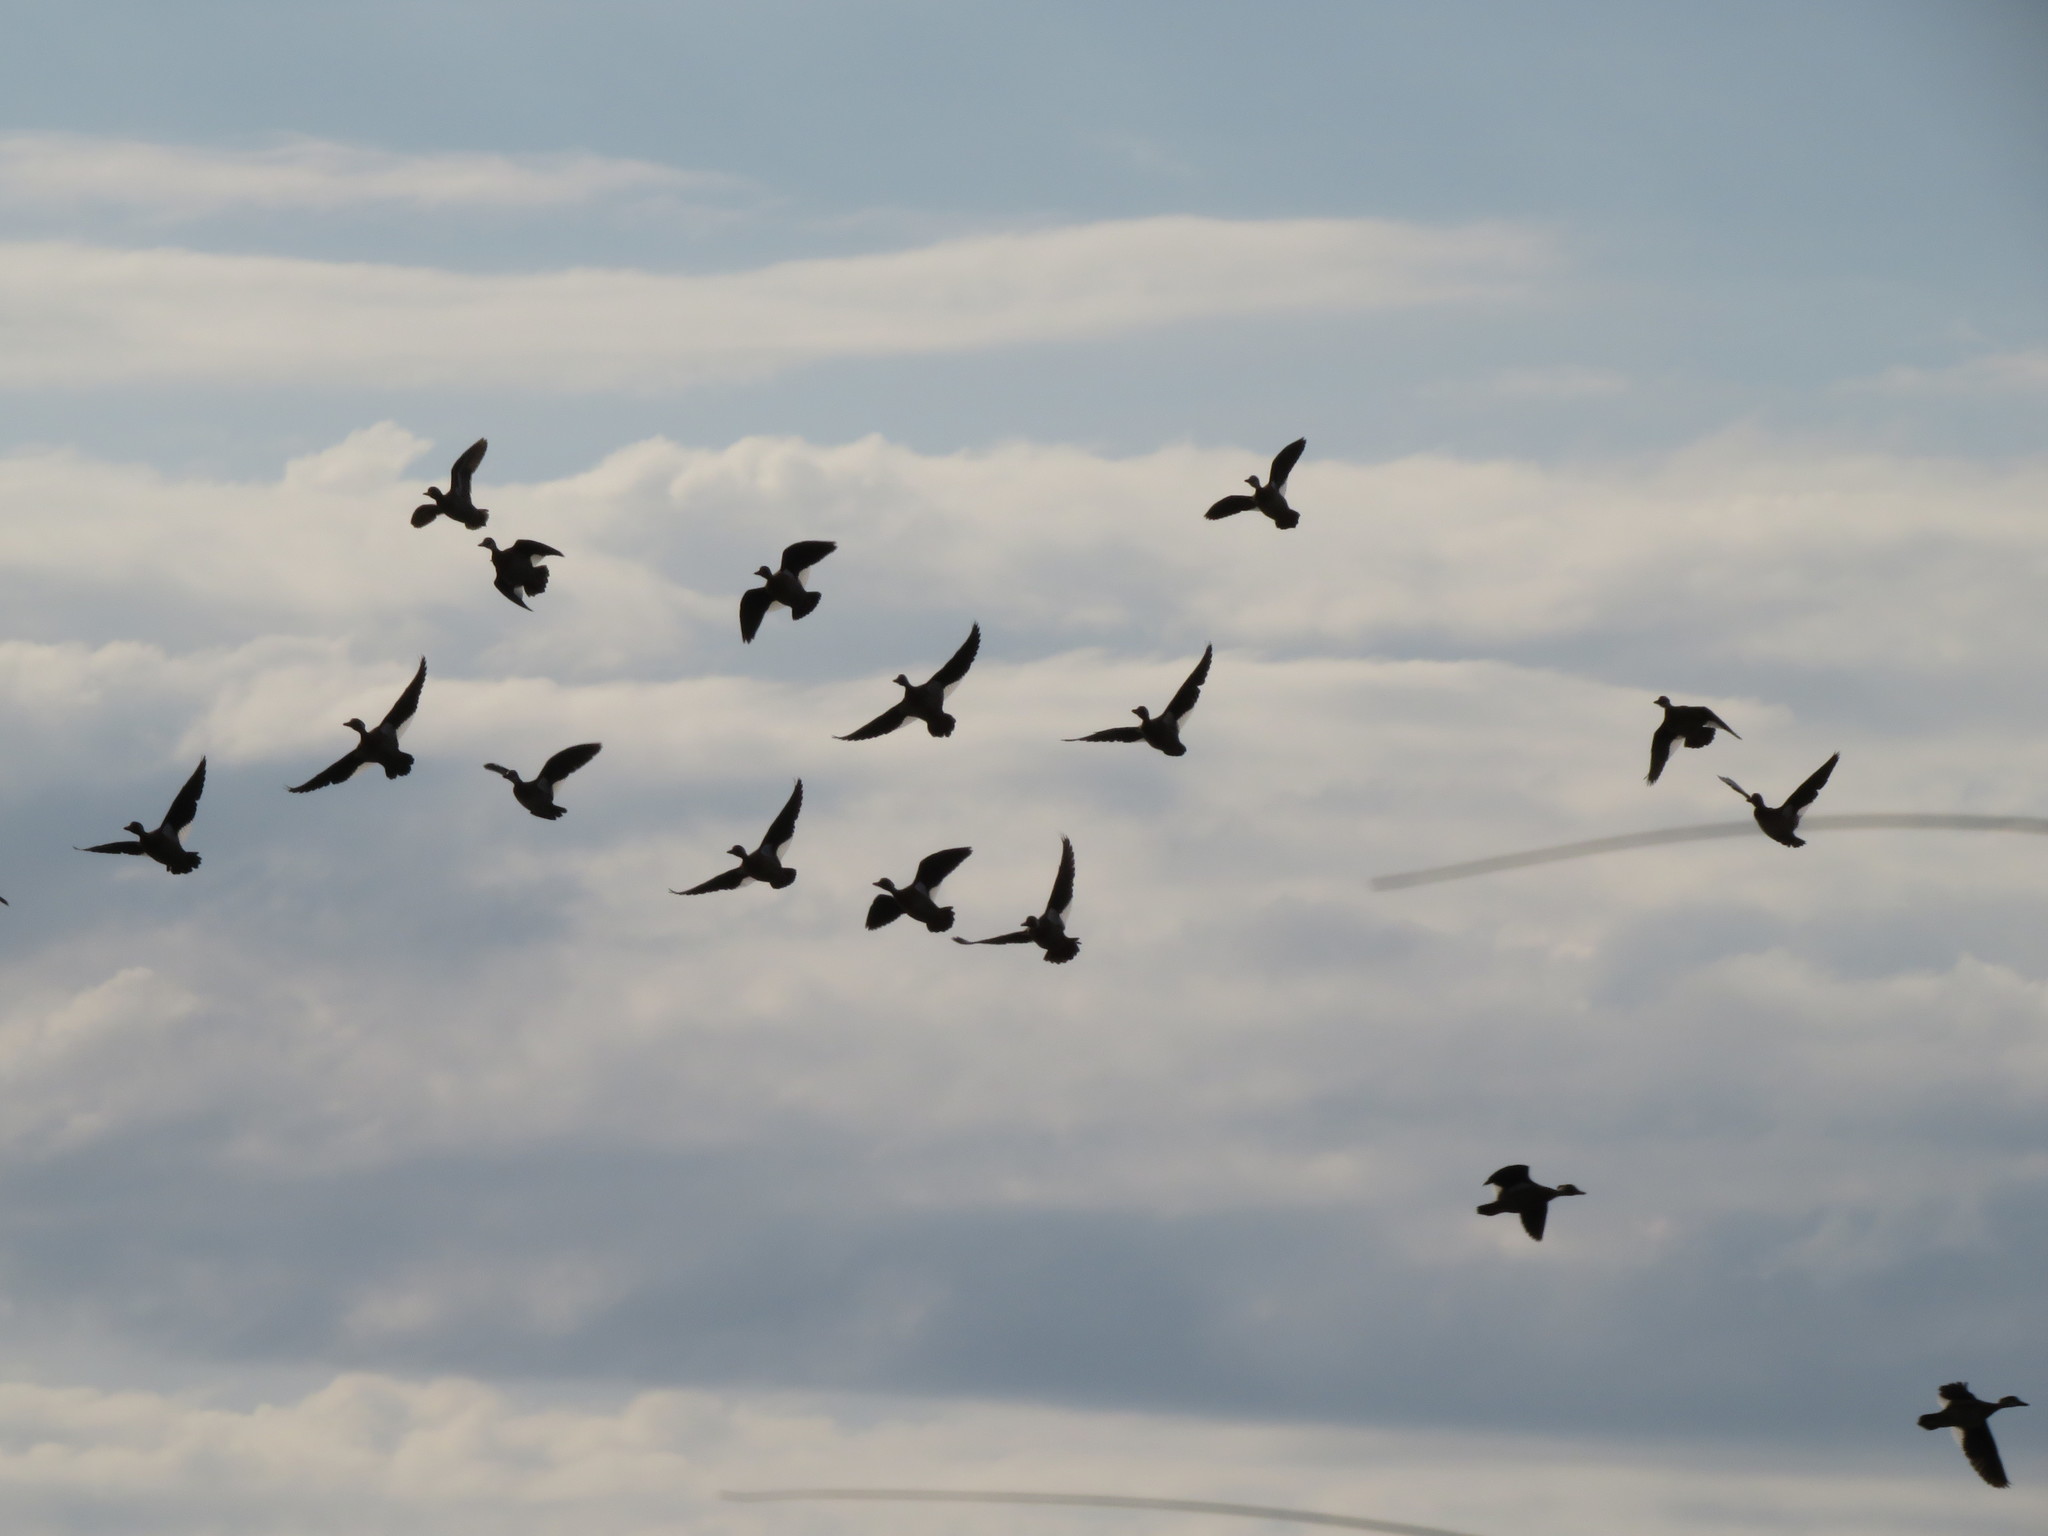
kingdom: Animalia
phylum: Chordata
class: Aves
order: Anseriformes
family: Anatidae
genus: Amazonetta
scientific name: Amazonetta brasiliensis
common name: Brazilian teal
